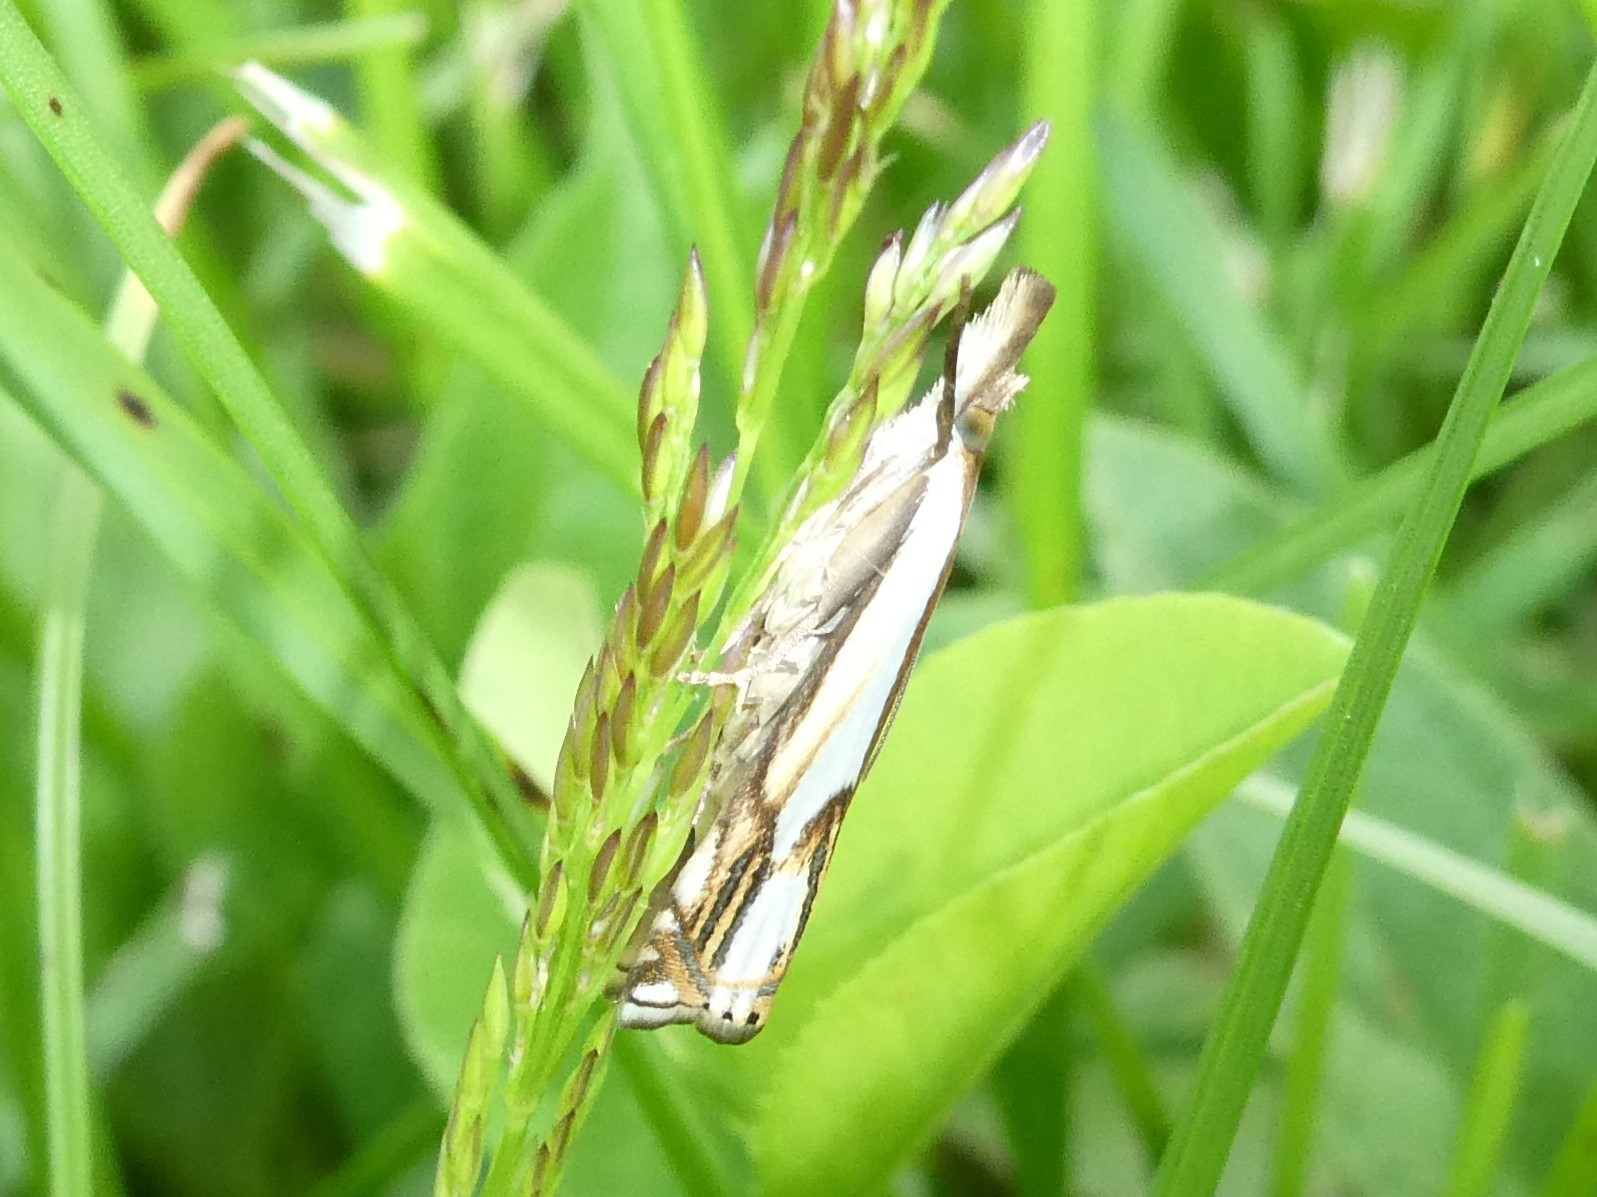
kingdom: Animalia
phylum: Arthropoda
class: Insecta
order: Lepidoptera
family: Crambidae
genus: Crambus
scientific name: Crambus agitatellus
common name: Double-banded grass-veneer
